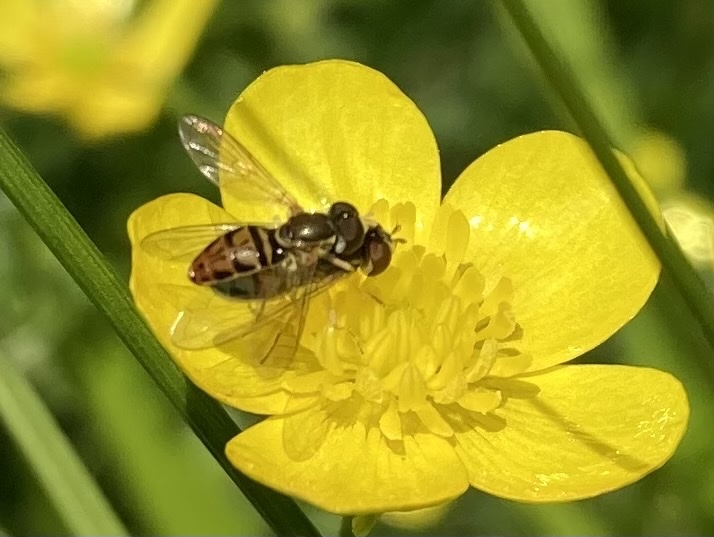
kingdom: Animalia
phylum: Arthropoda
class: Insecta
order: Diptera
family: Syrphidae
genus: Toxomerus
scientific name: Toxomerus marginatus
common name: Syrphid fly
